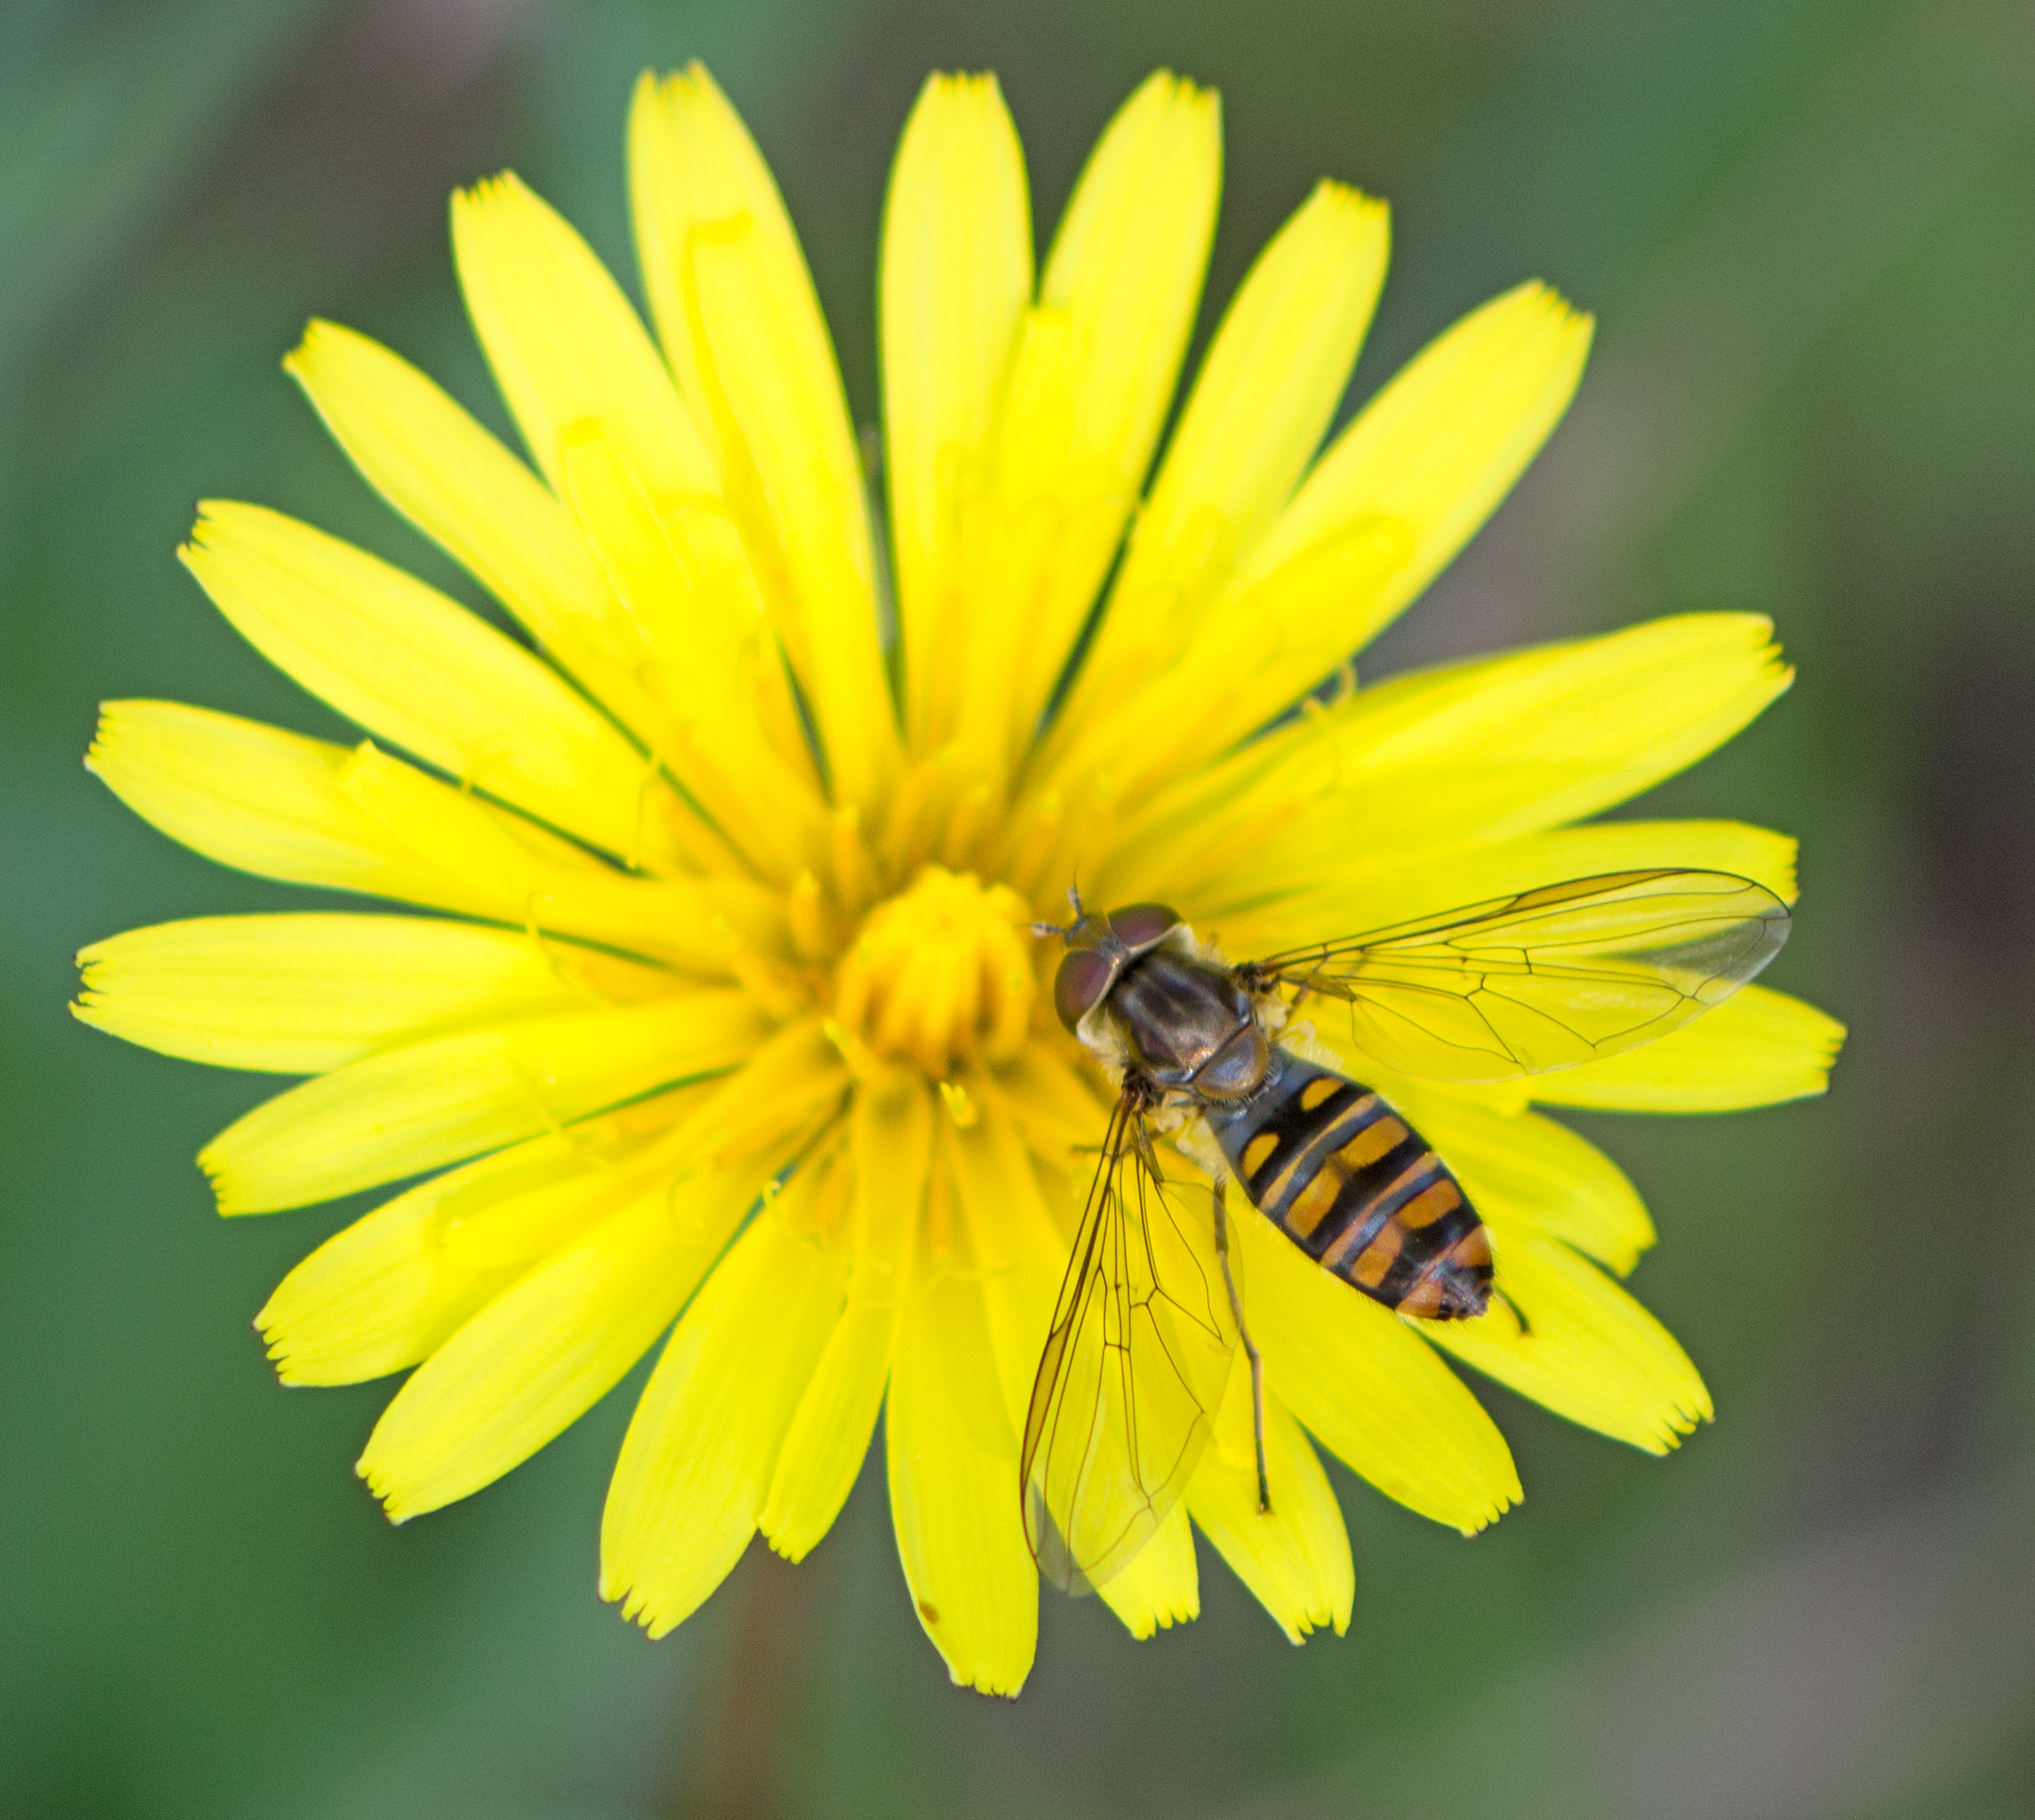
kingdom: Animalia
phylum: Arthropoda
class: Insecta
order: Diptera
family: Syrphidae
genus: Episyrphus
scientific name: Episyrphus balteatus
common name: Marmalade hoverfly
